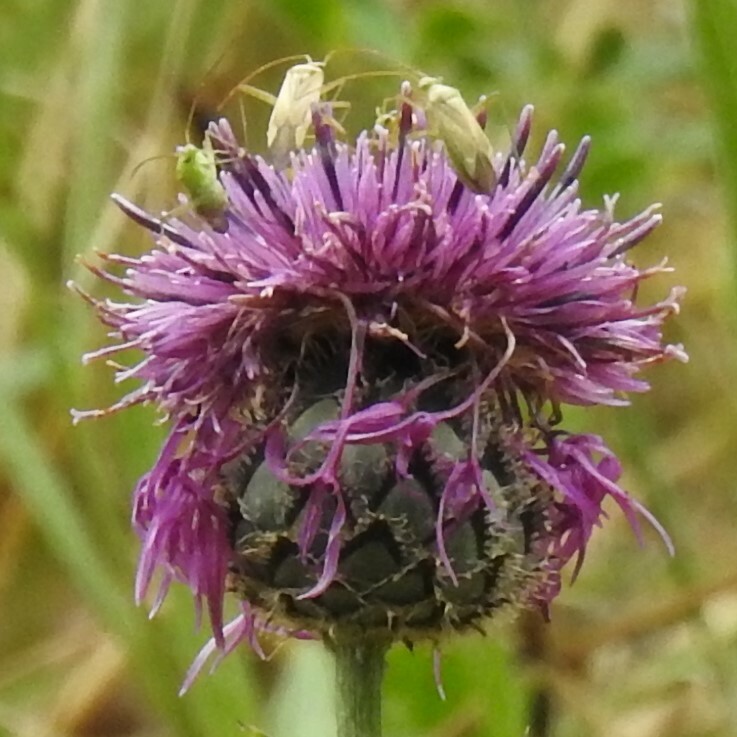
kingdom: Animalia
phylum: Arthropoda
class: Insecta
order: Hemiptera
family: Miridae
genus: Adelphocoris
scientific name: Adelphocoris lineolatus
